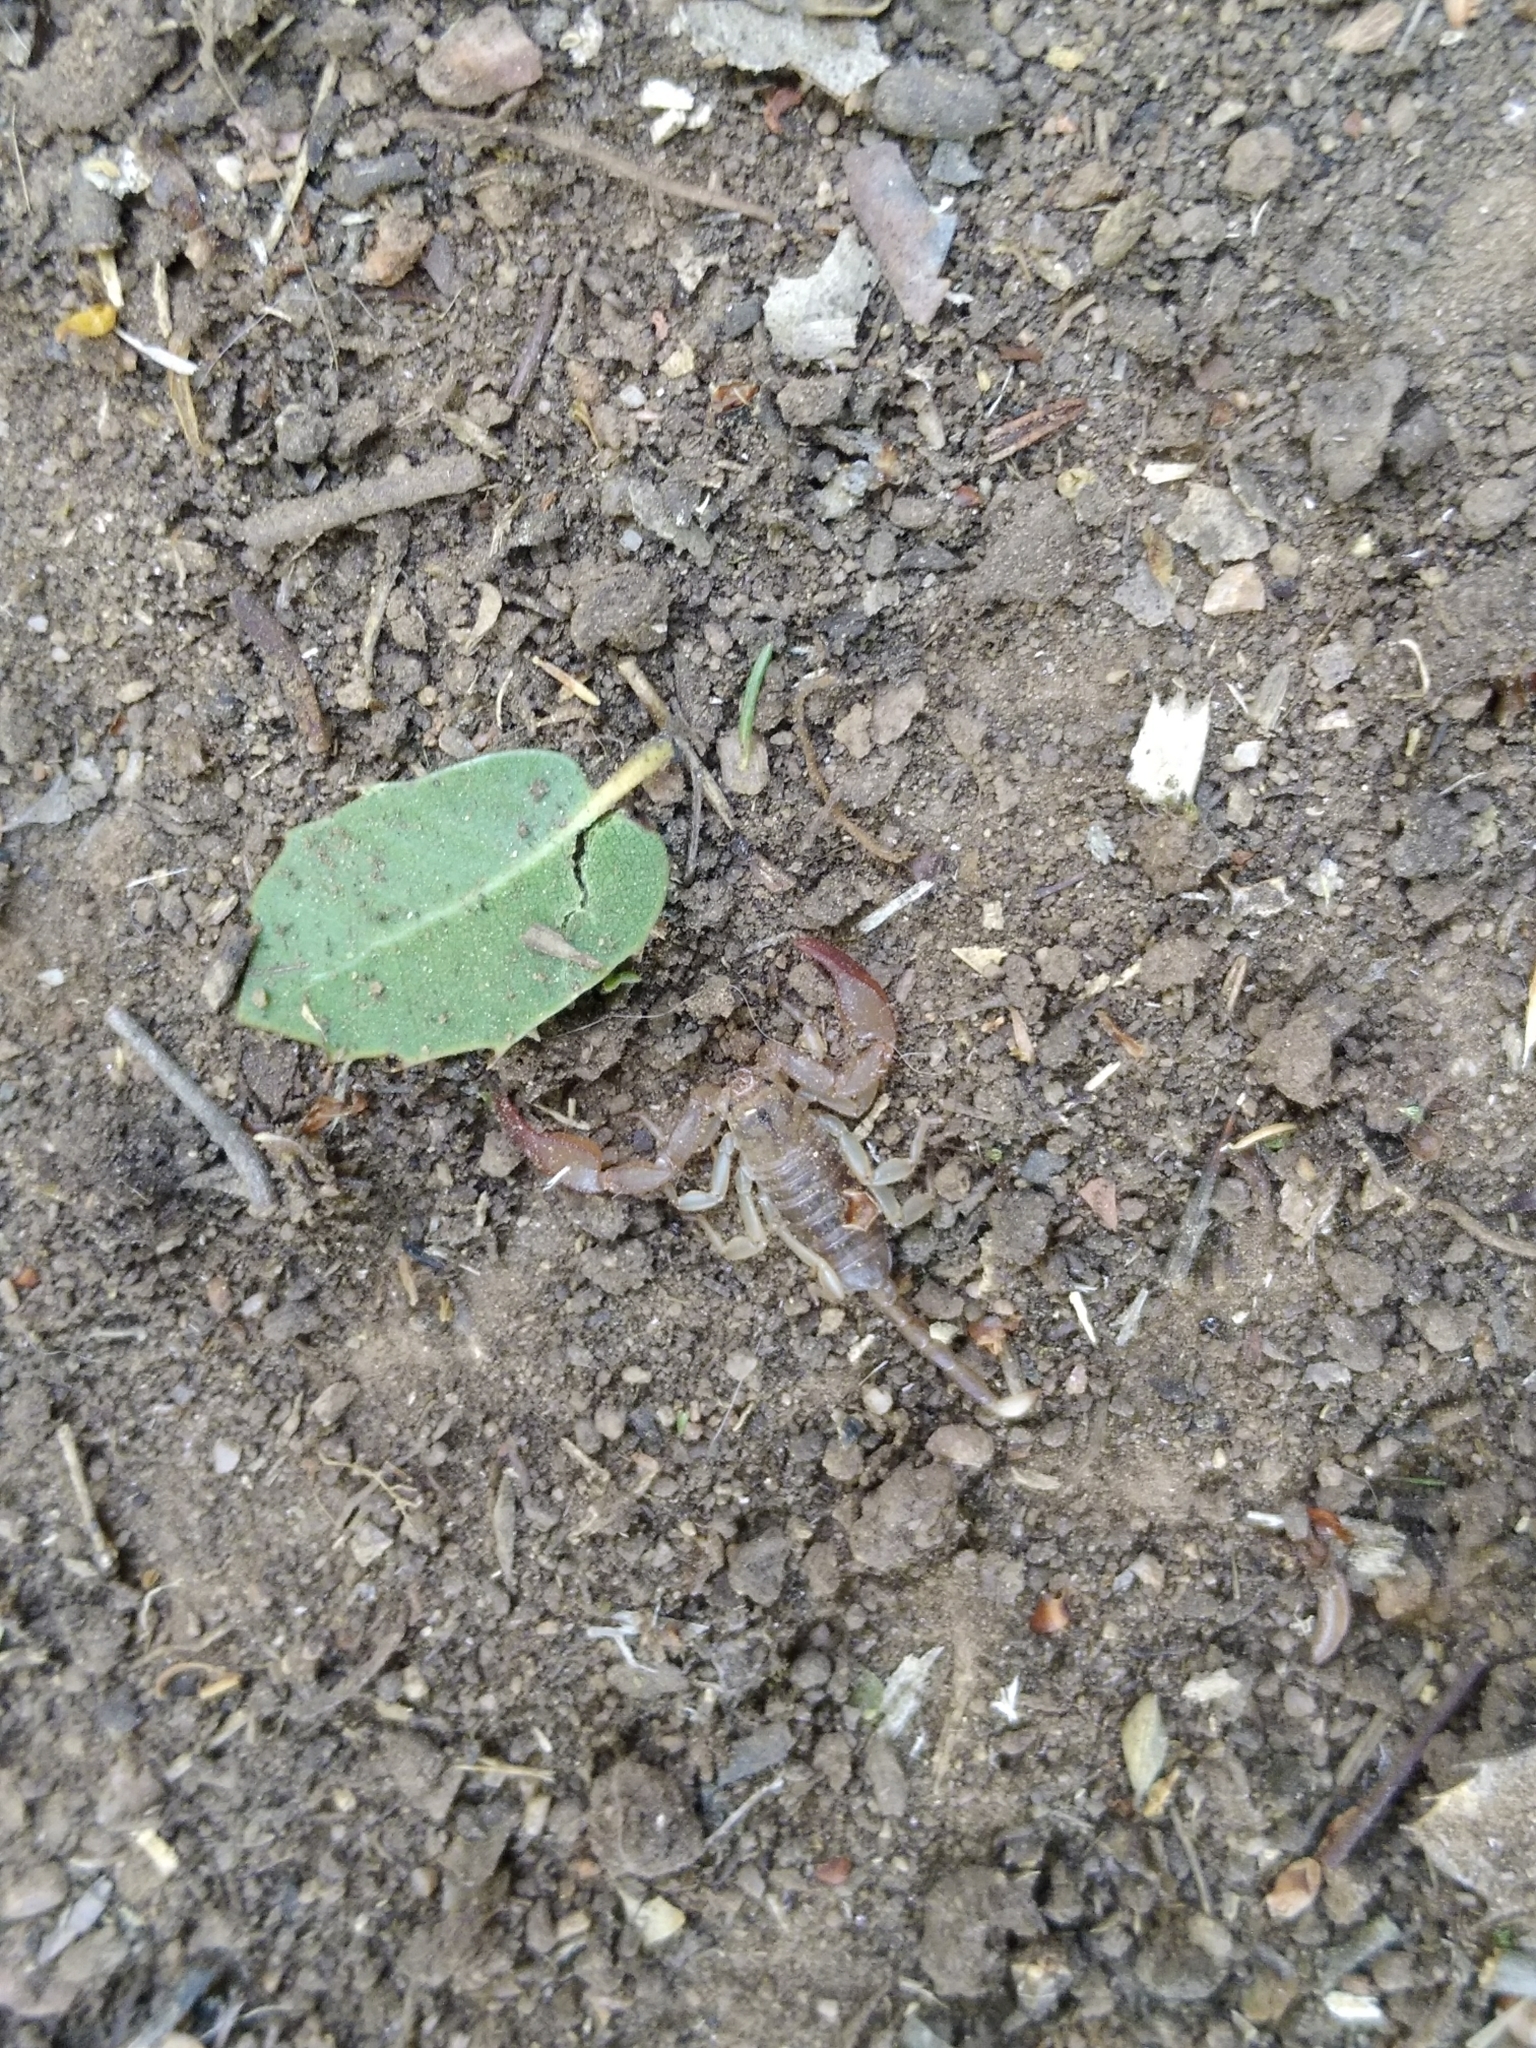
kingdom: Animalia
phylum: Arthropoda
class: Arachnida
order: Scorpiones
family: Euscorpiidae
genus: Euscorpius
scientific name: Euscorpius
